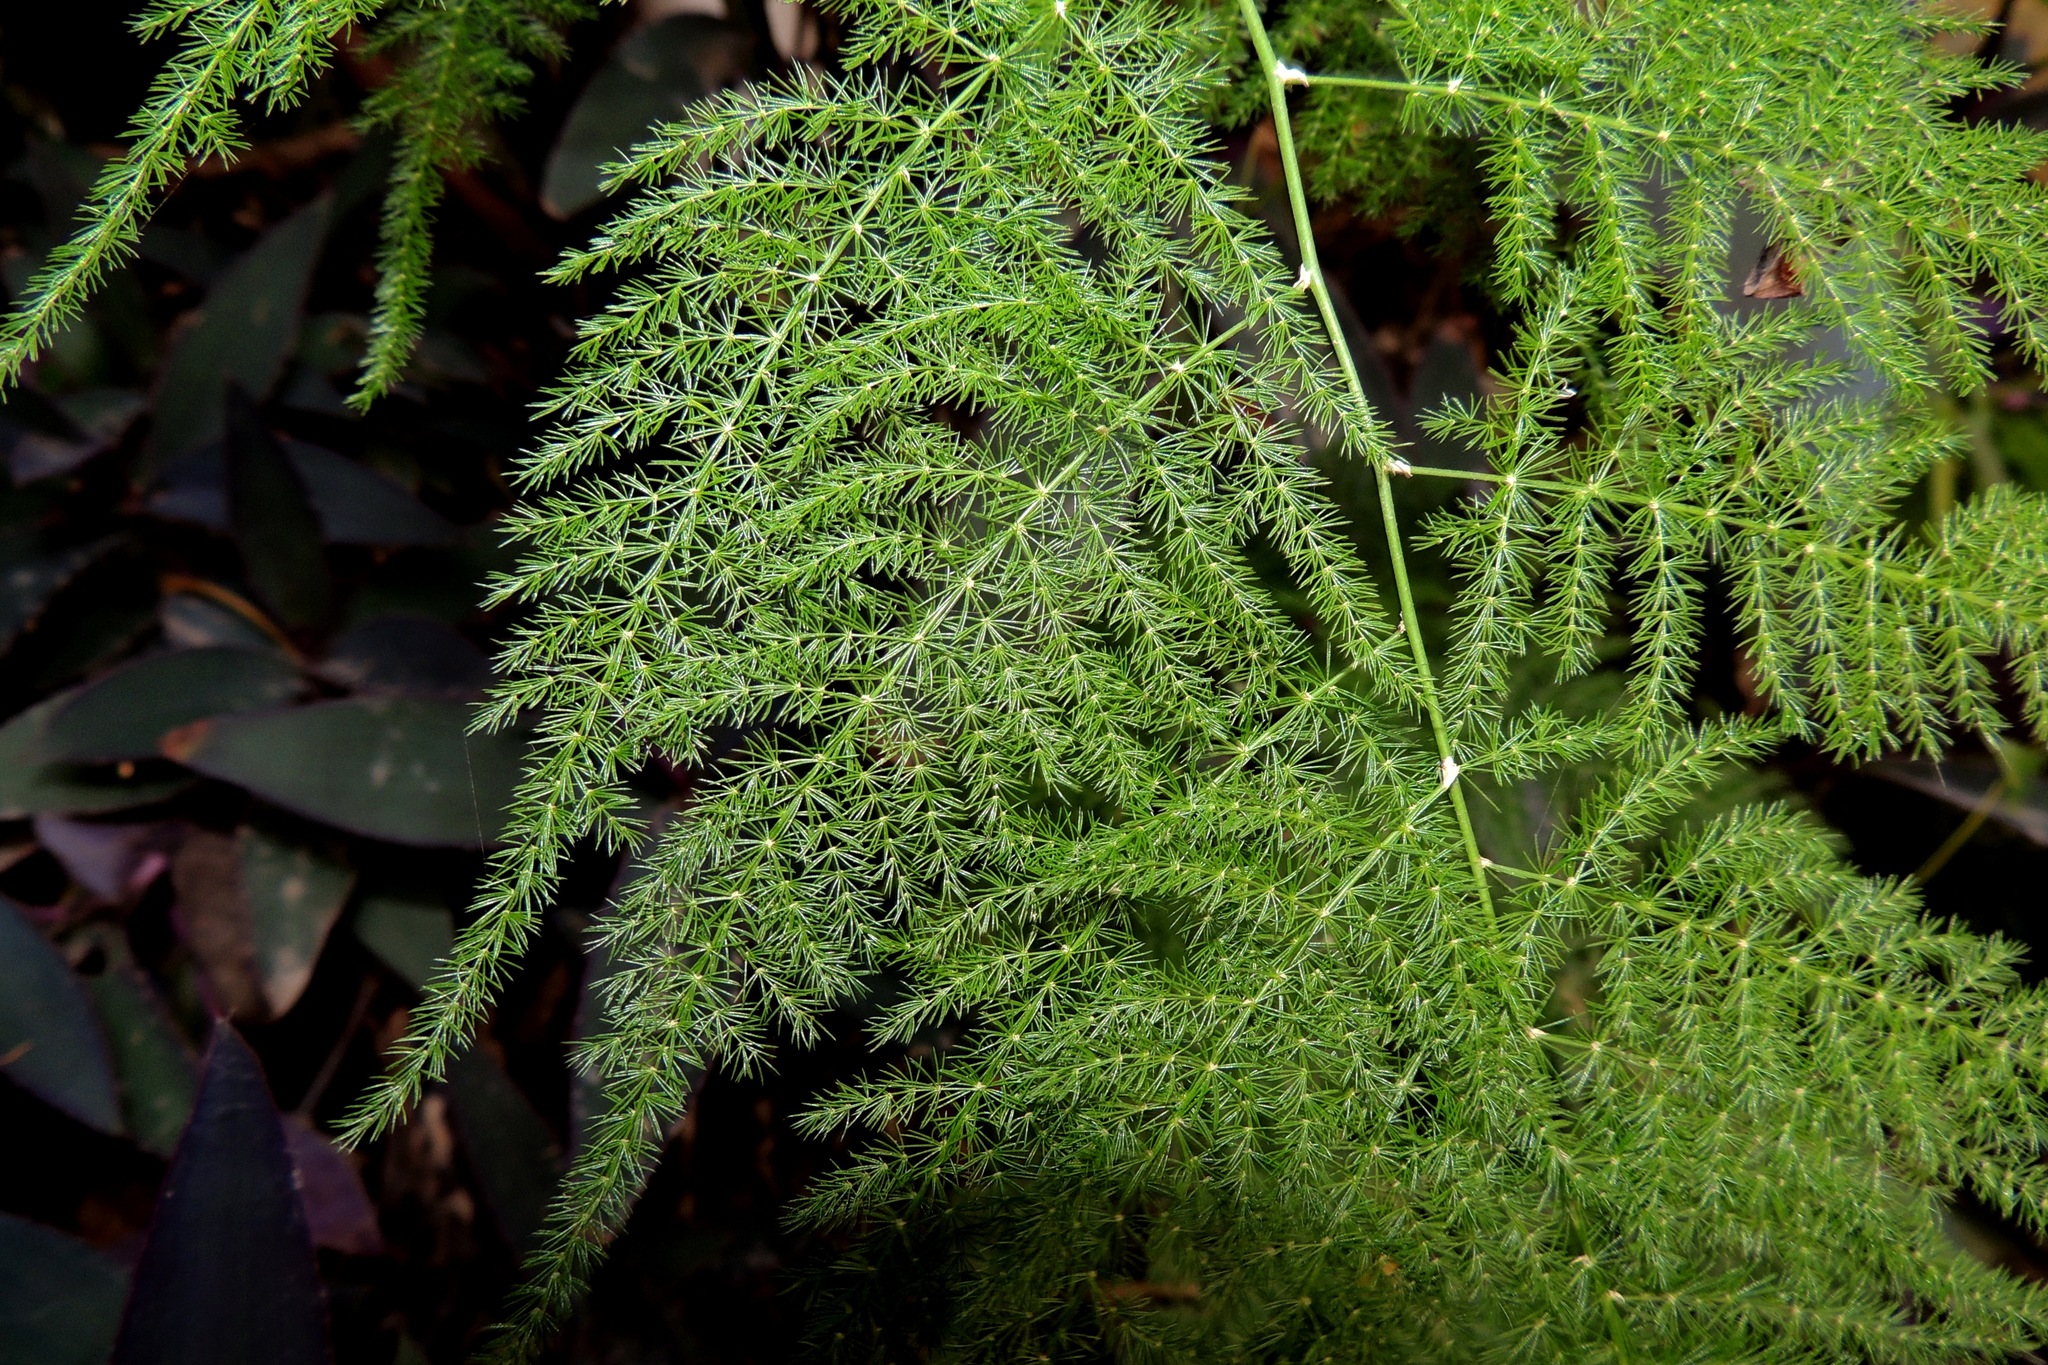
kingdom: Plantae
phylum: Tracheophyta
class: Liliopsida
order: Asparagales
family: Asparagaceae
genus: Asparagus
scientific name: Asparagus setaceus
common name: Common asparagus fern
